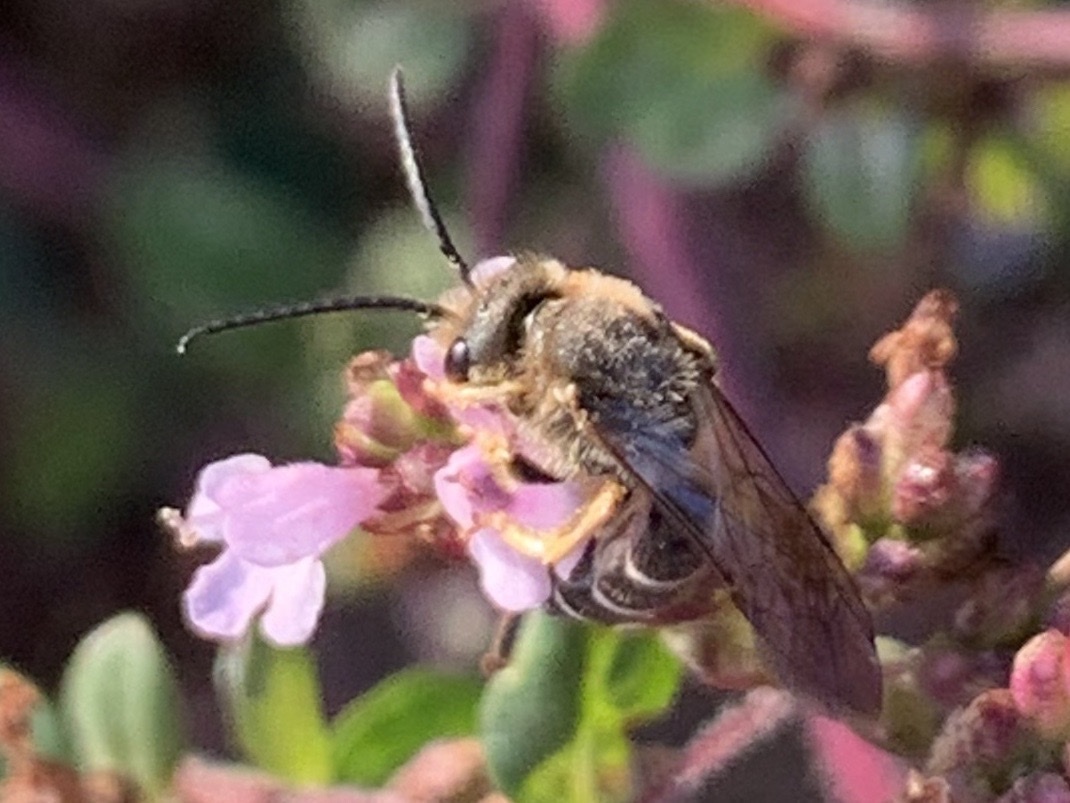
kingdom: Animalia
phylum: Arthropoda
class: Insecta
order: Hymenoptera
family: Halictidae
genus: Halictus
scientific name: Halictus rubicundus
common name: Orange-legged furrow bee
